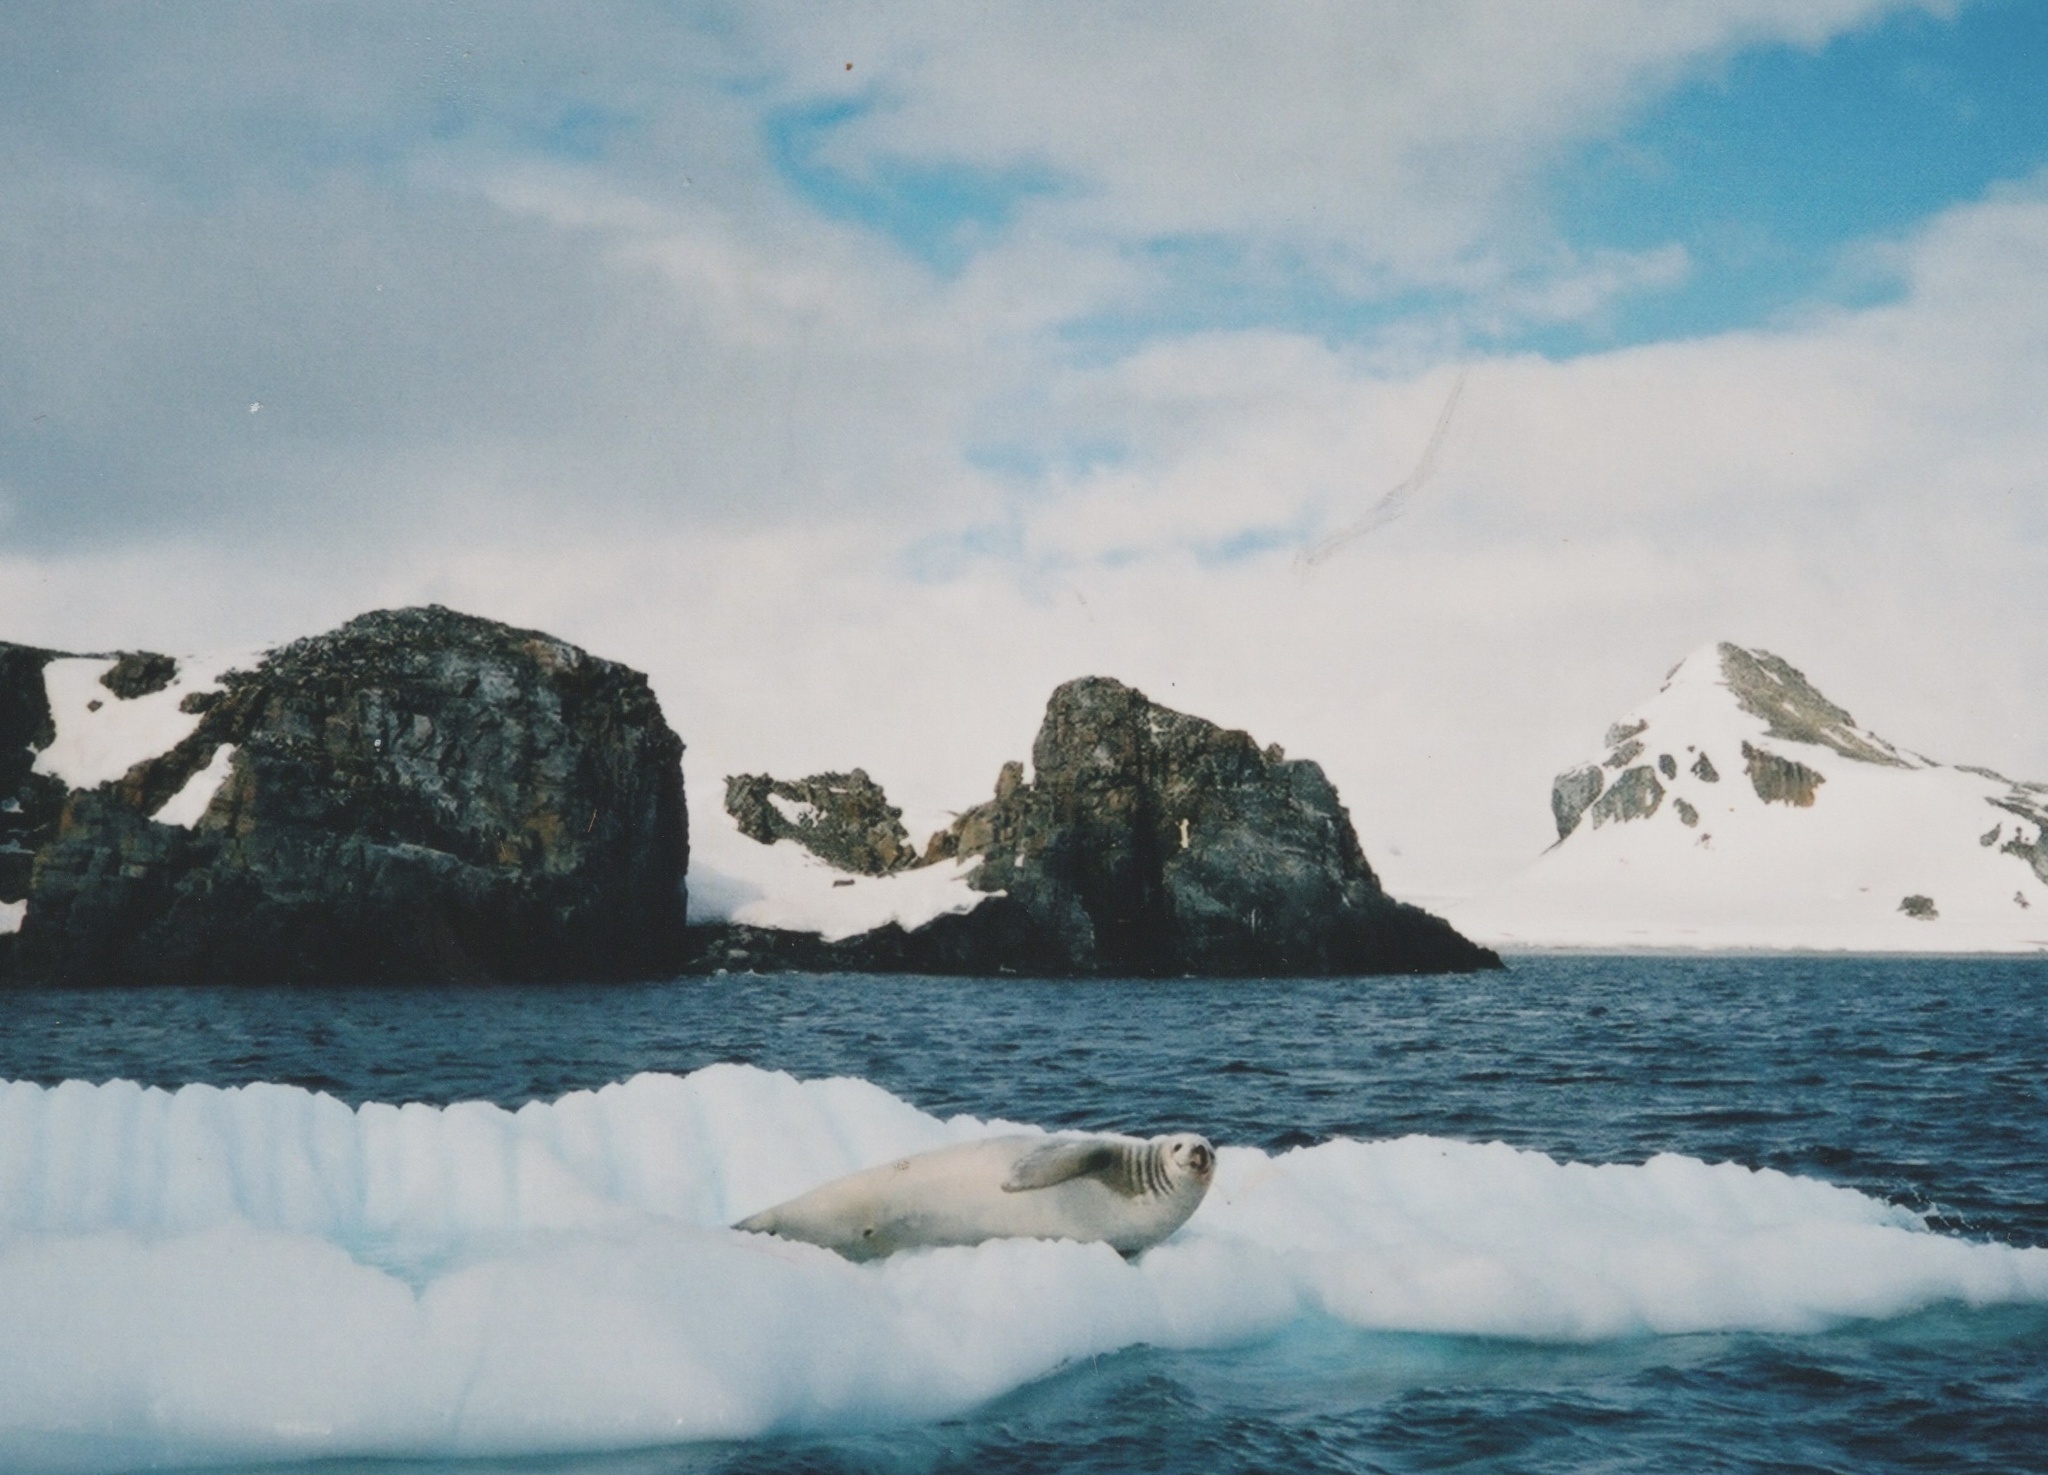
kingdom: Animalia
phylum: Chordata
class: Mammalia
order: Carnivora
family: Phocidae
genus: Lobodon
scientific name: Lobodon carcinophaga
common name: Crabeater seal
